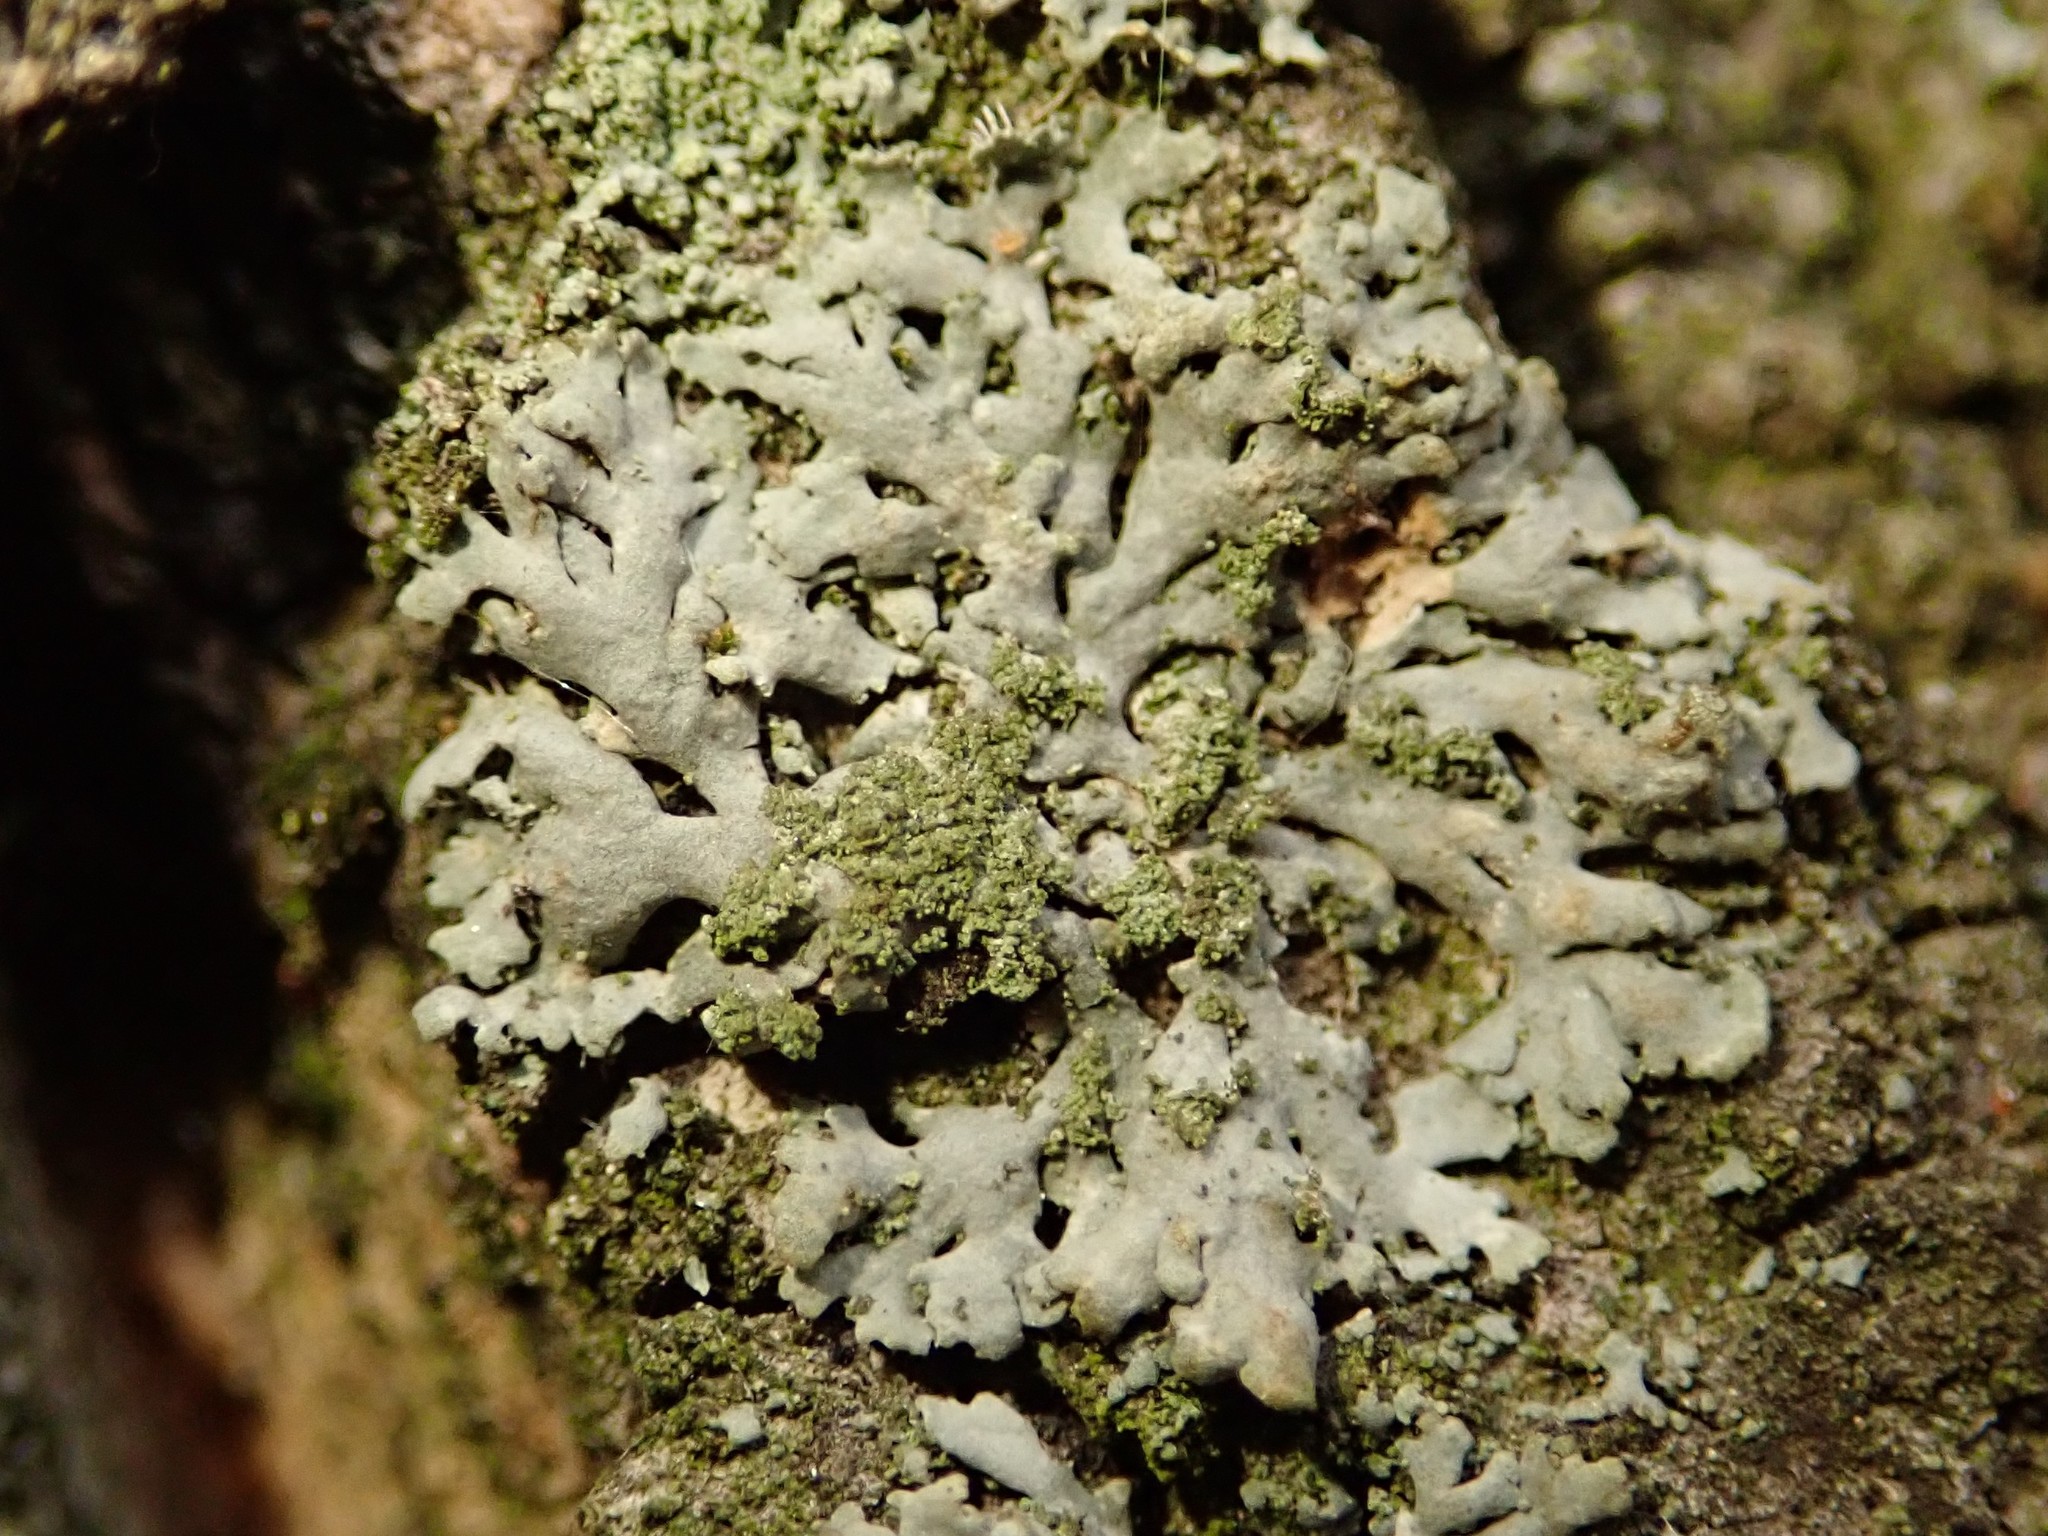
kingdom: Fungi
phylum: Ascomycota
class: Lecanoromycetes
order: Caliciales
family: Physciaceae
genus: Phaeophyscia
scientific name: Phaeophyscia orbicularis
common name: Mealy shadow lichen
